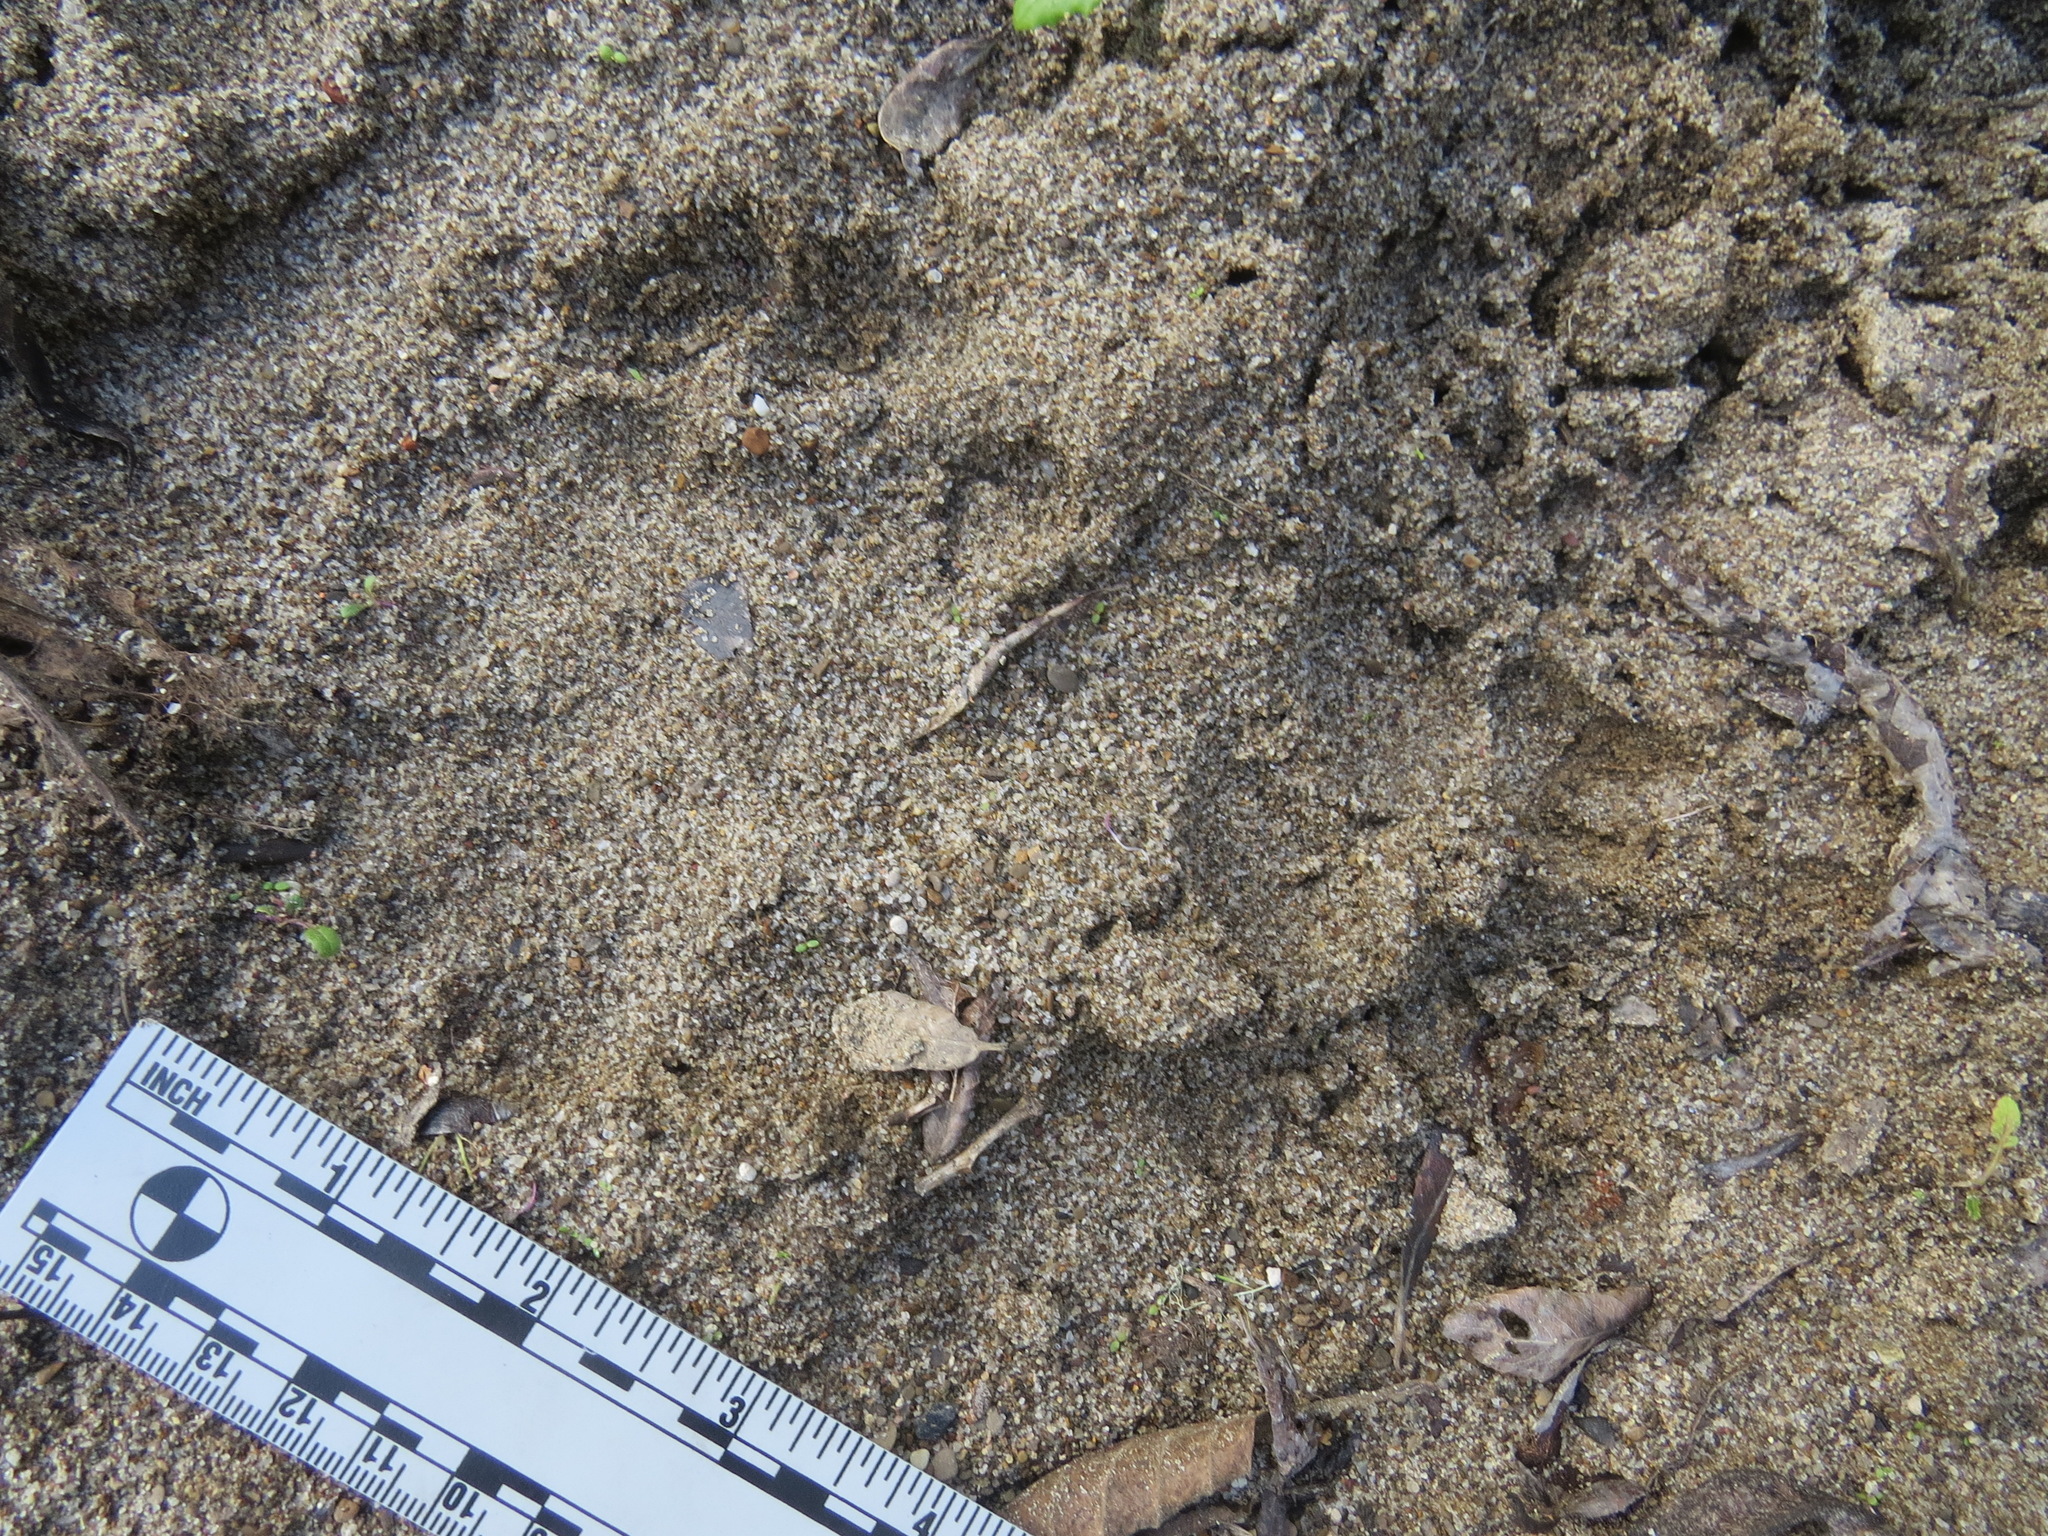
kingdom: Animalia
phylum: Chordata
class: Mammalia
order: Carnivora
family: Felidae
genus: Puma
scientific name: Puma concolor
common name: Puma
